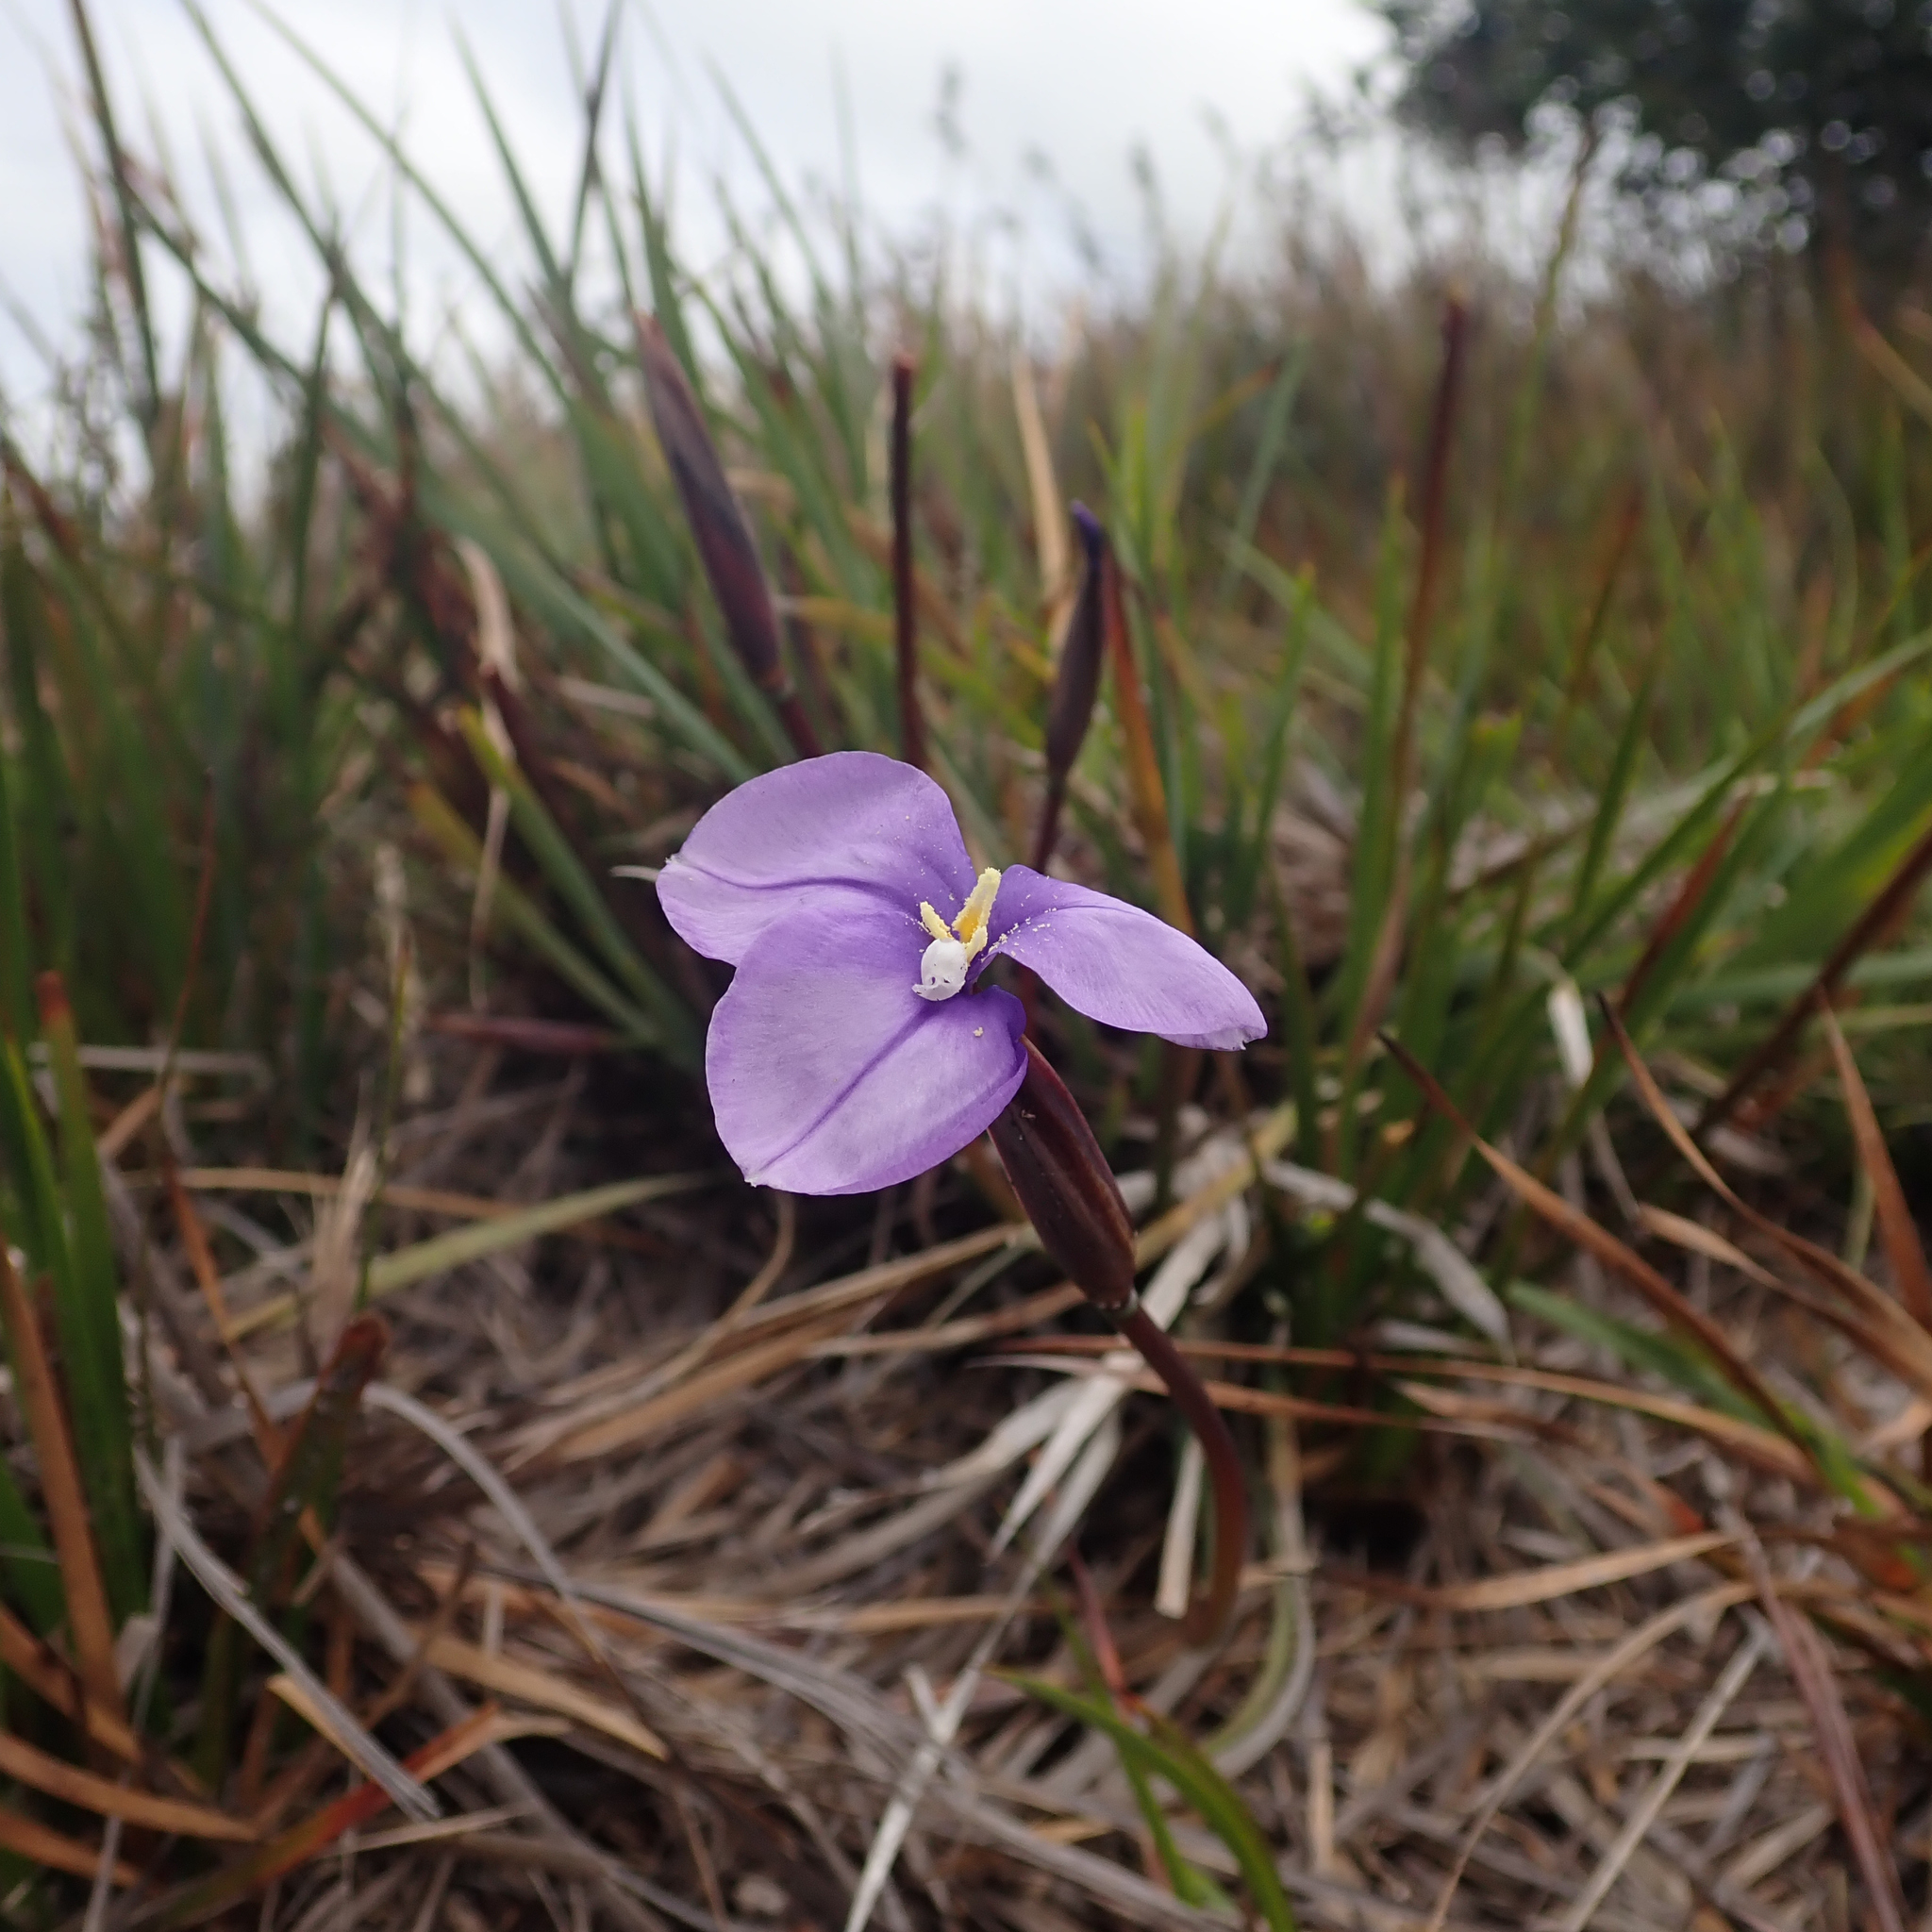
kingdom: Plantae
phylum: Tracheophyta
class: Liliopsida
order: Asparagales
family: Iridaceae
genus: Patersonia
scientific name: Patersonia occidentalis
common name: Long purple-flag
